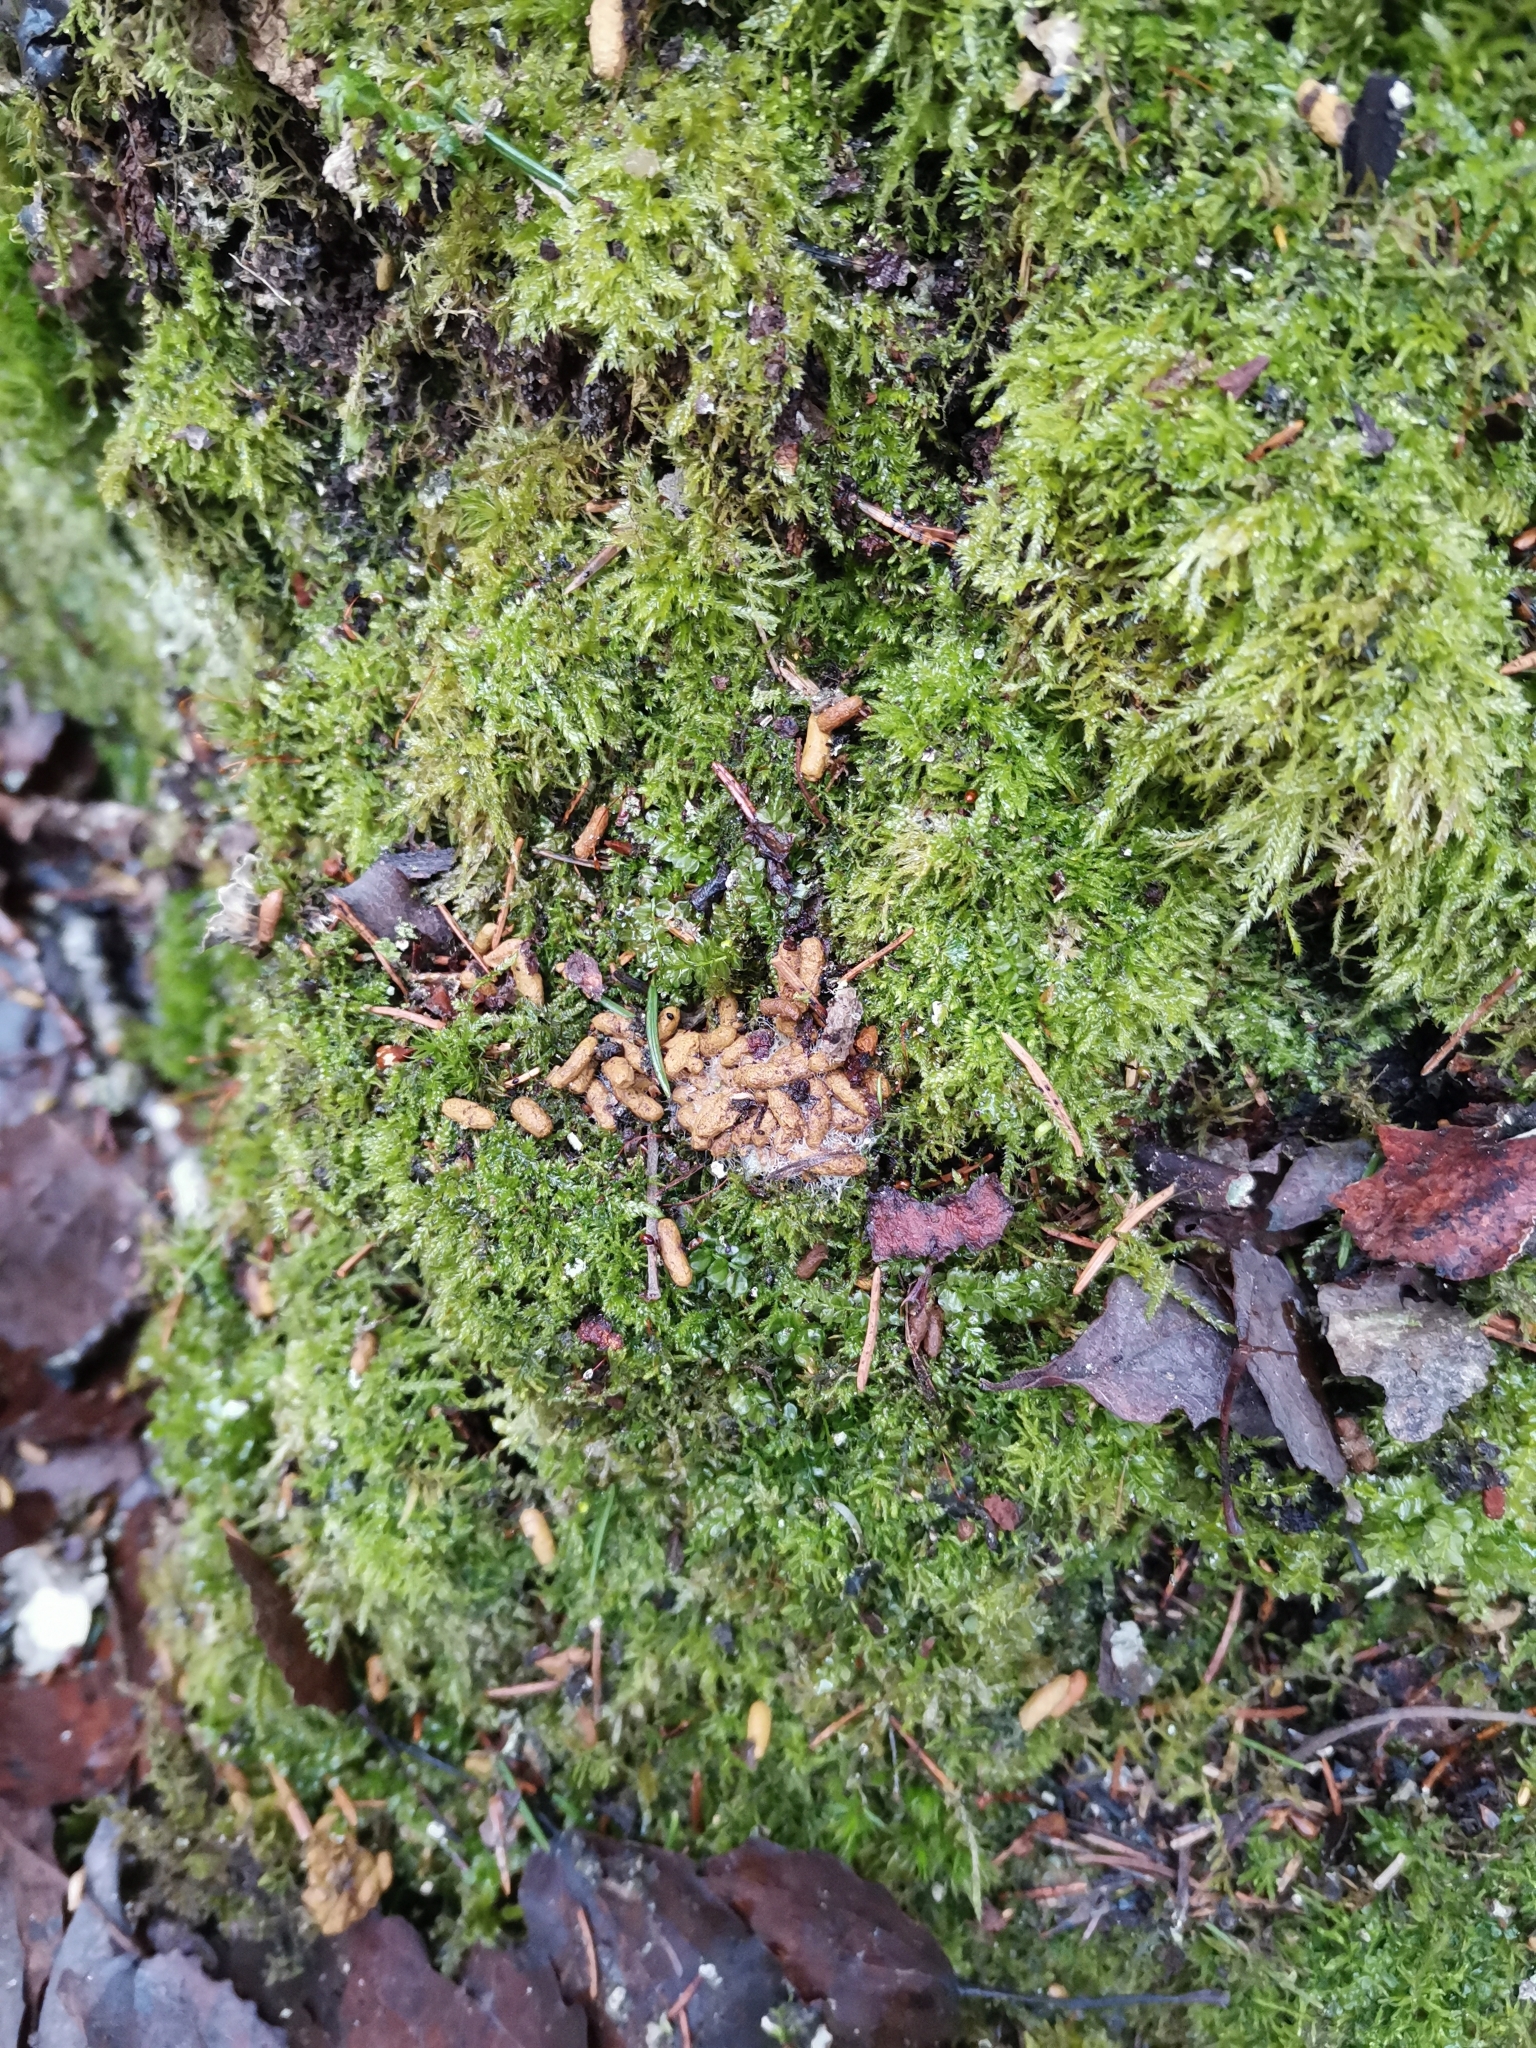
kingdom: Animalia
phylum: Chordata
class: Mammalia
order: Rodentia
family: Sciuridae
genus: Pteromys
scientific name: Pteromys volans
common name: Siberian flying squirrel
